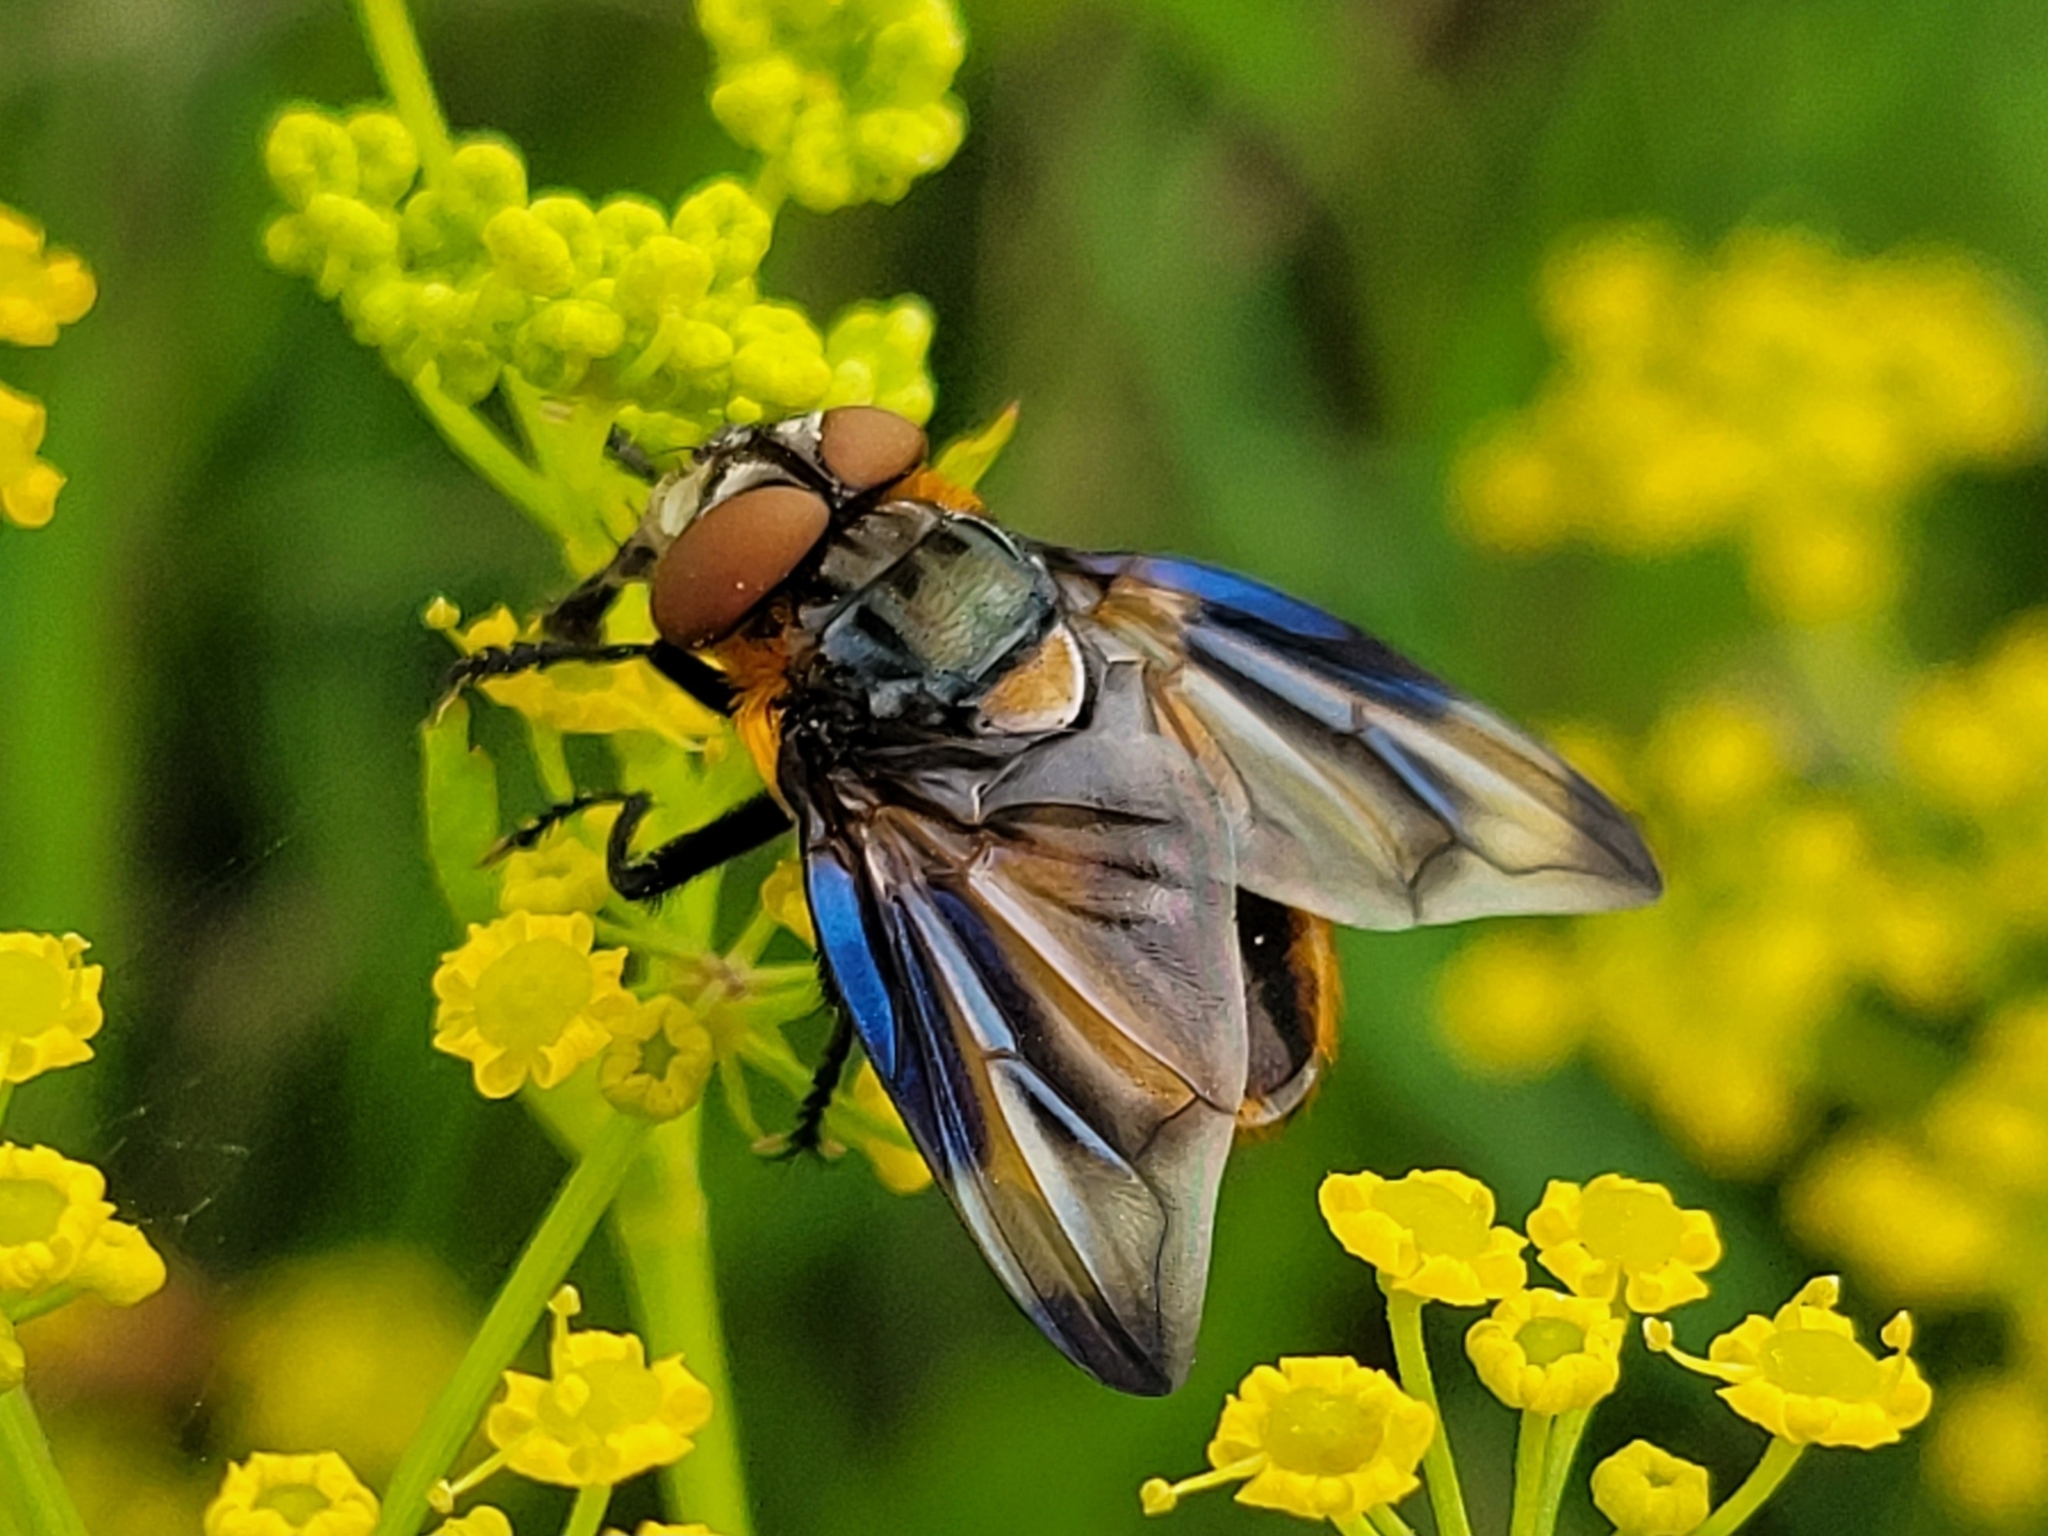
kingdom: Animalia
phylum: Arthropoda
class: Insecta
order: Diptera
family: Tachinidae
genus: Phasia
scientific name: Phasia hemiptera
